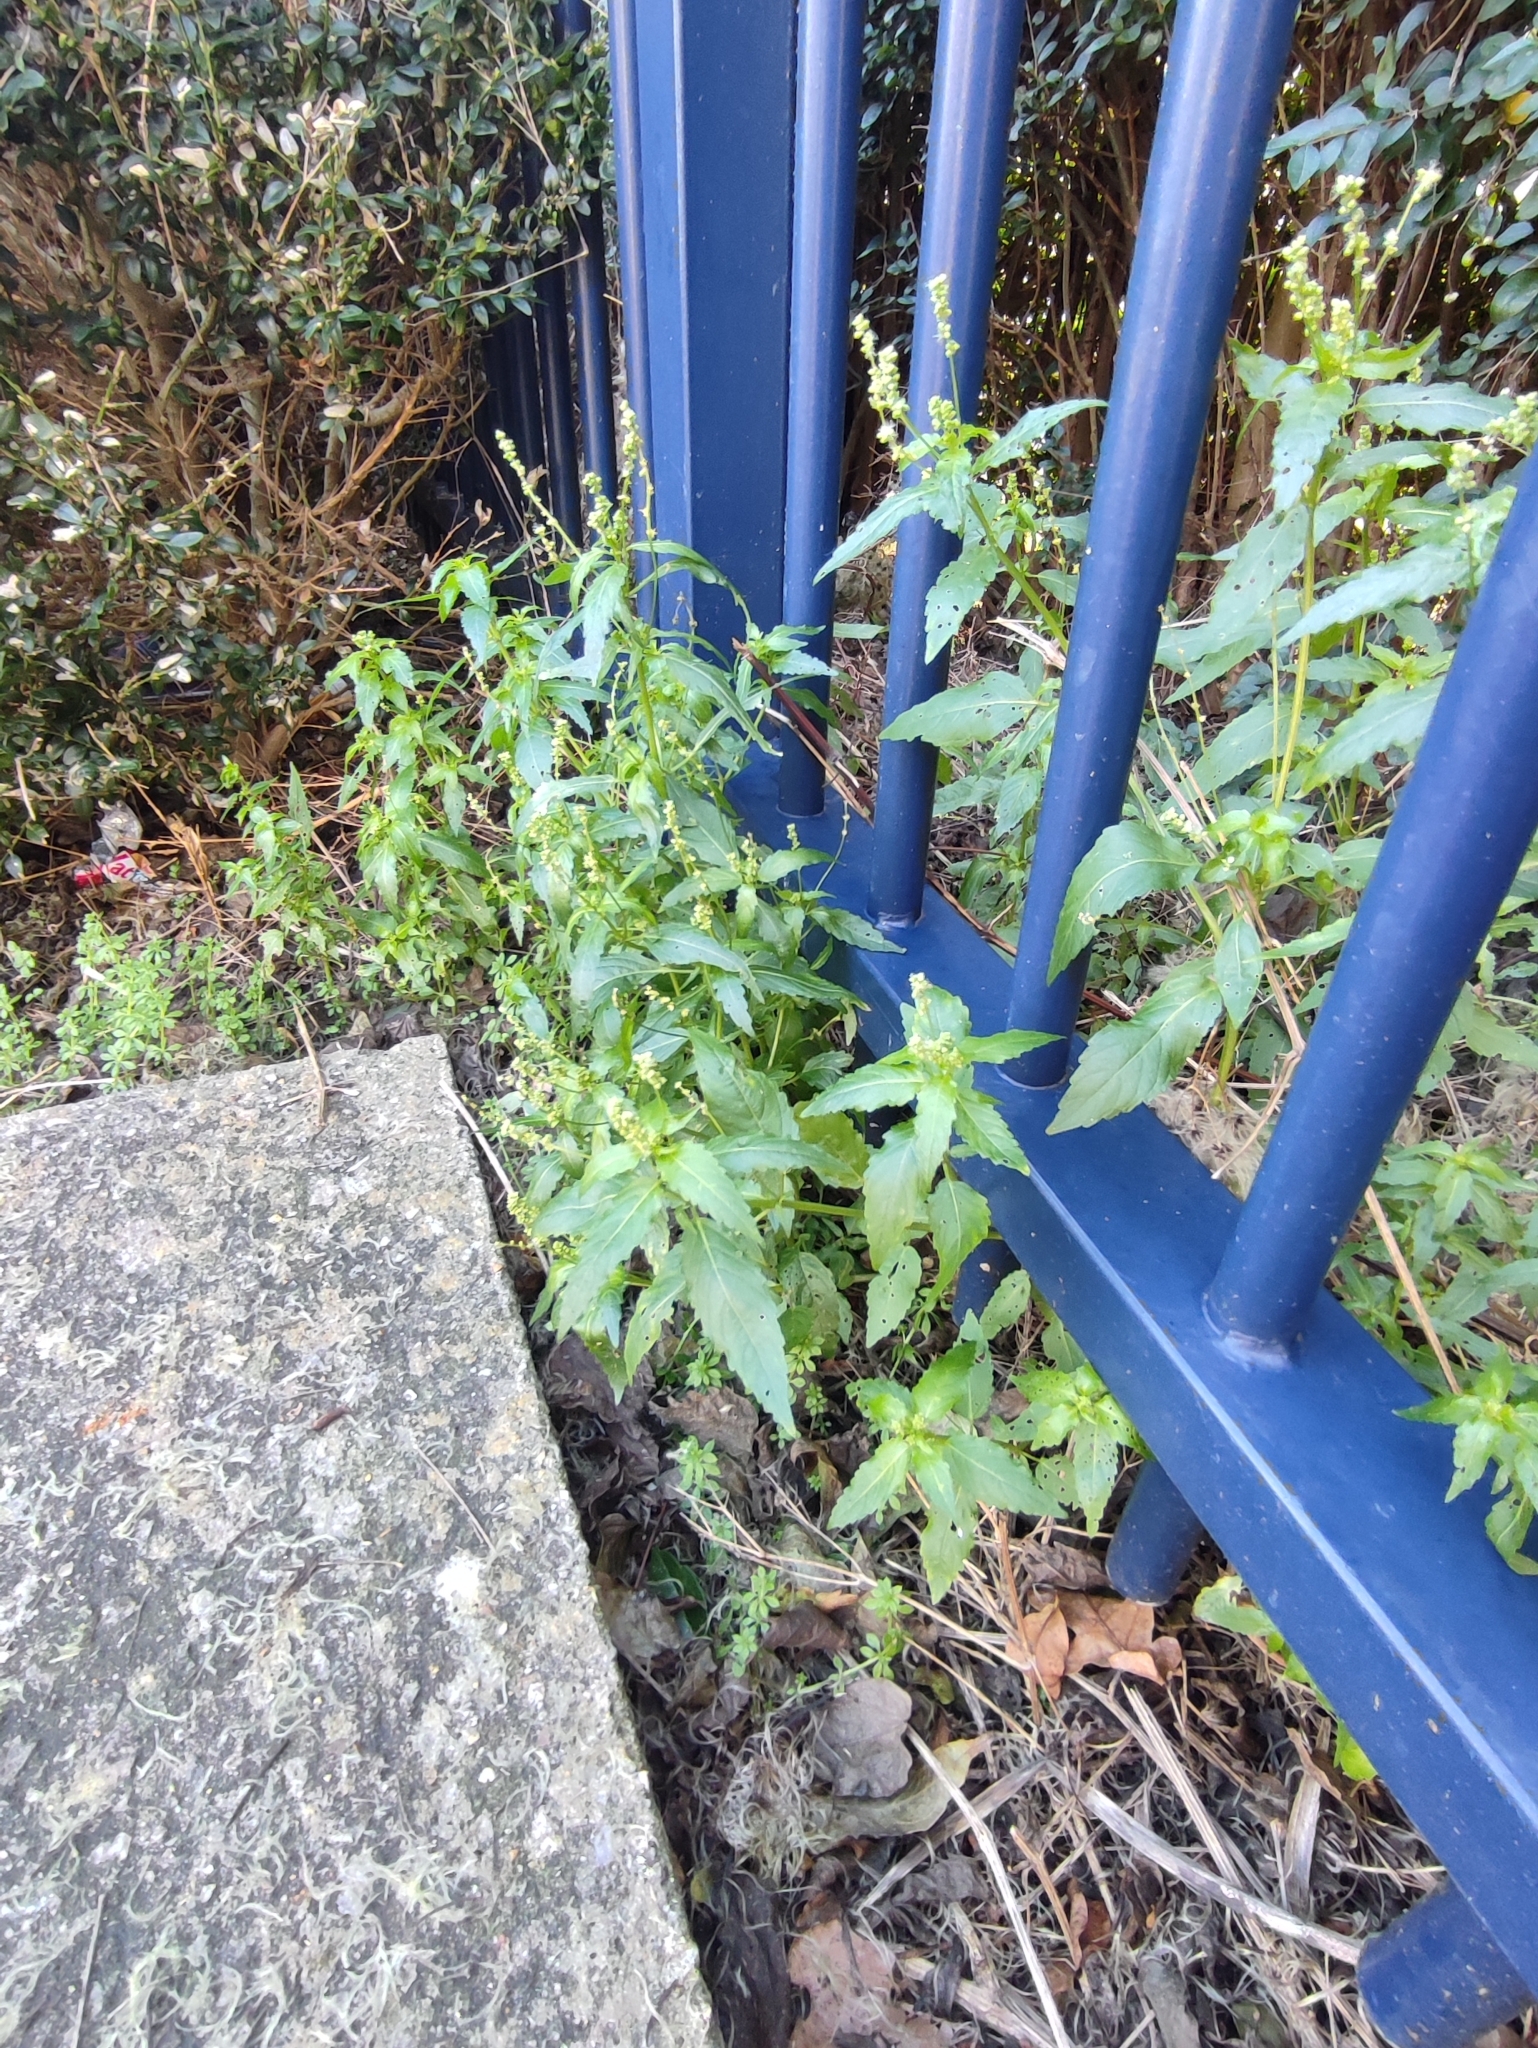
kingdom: Plantae
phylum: Tracheophyta
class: Magnoliopsida
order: Malpighiales
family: Euphorbiaceae
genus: Mercurialis
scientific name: Mercurialis annua
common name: Annual mercury
